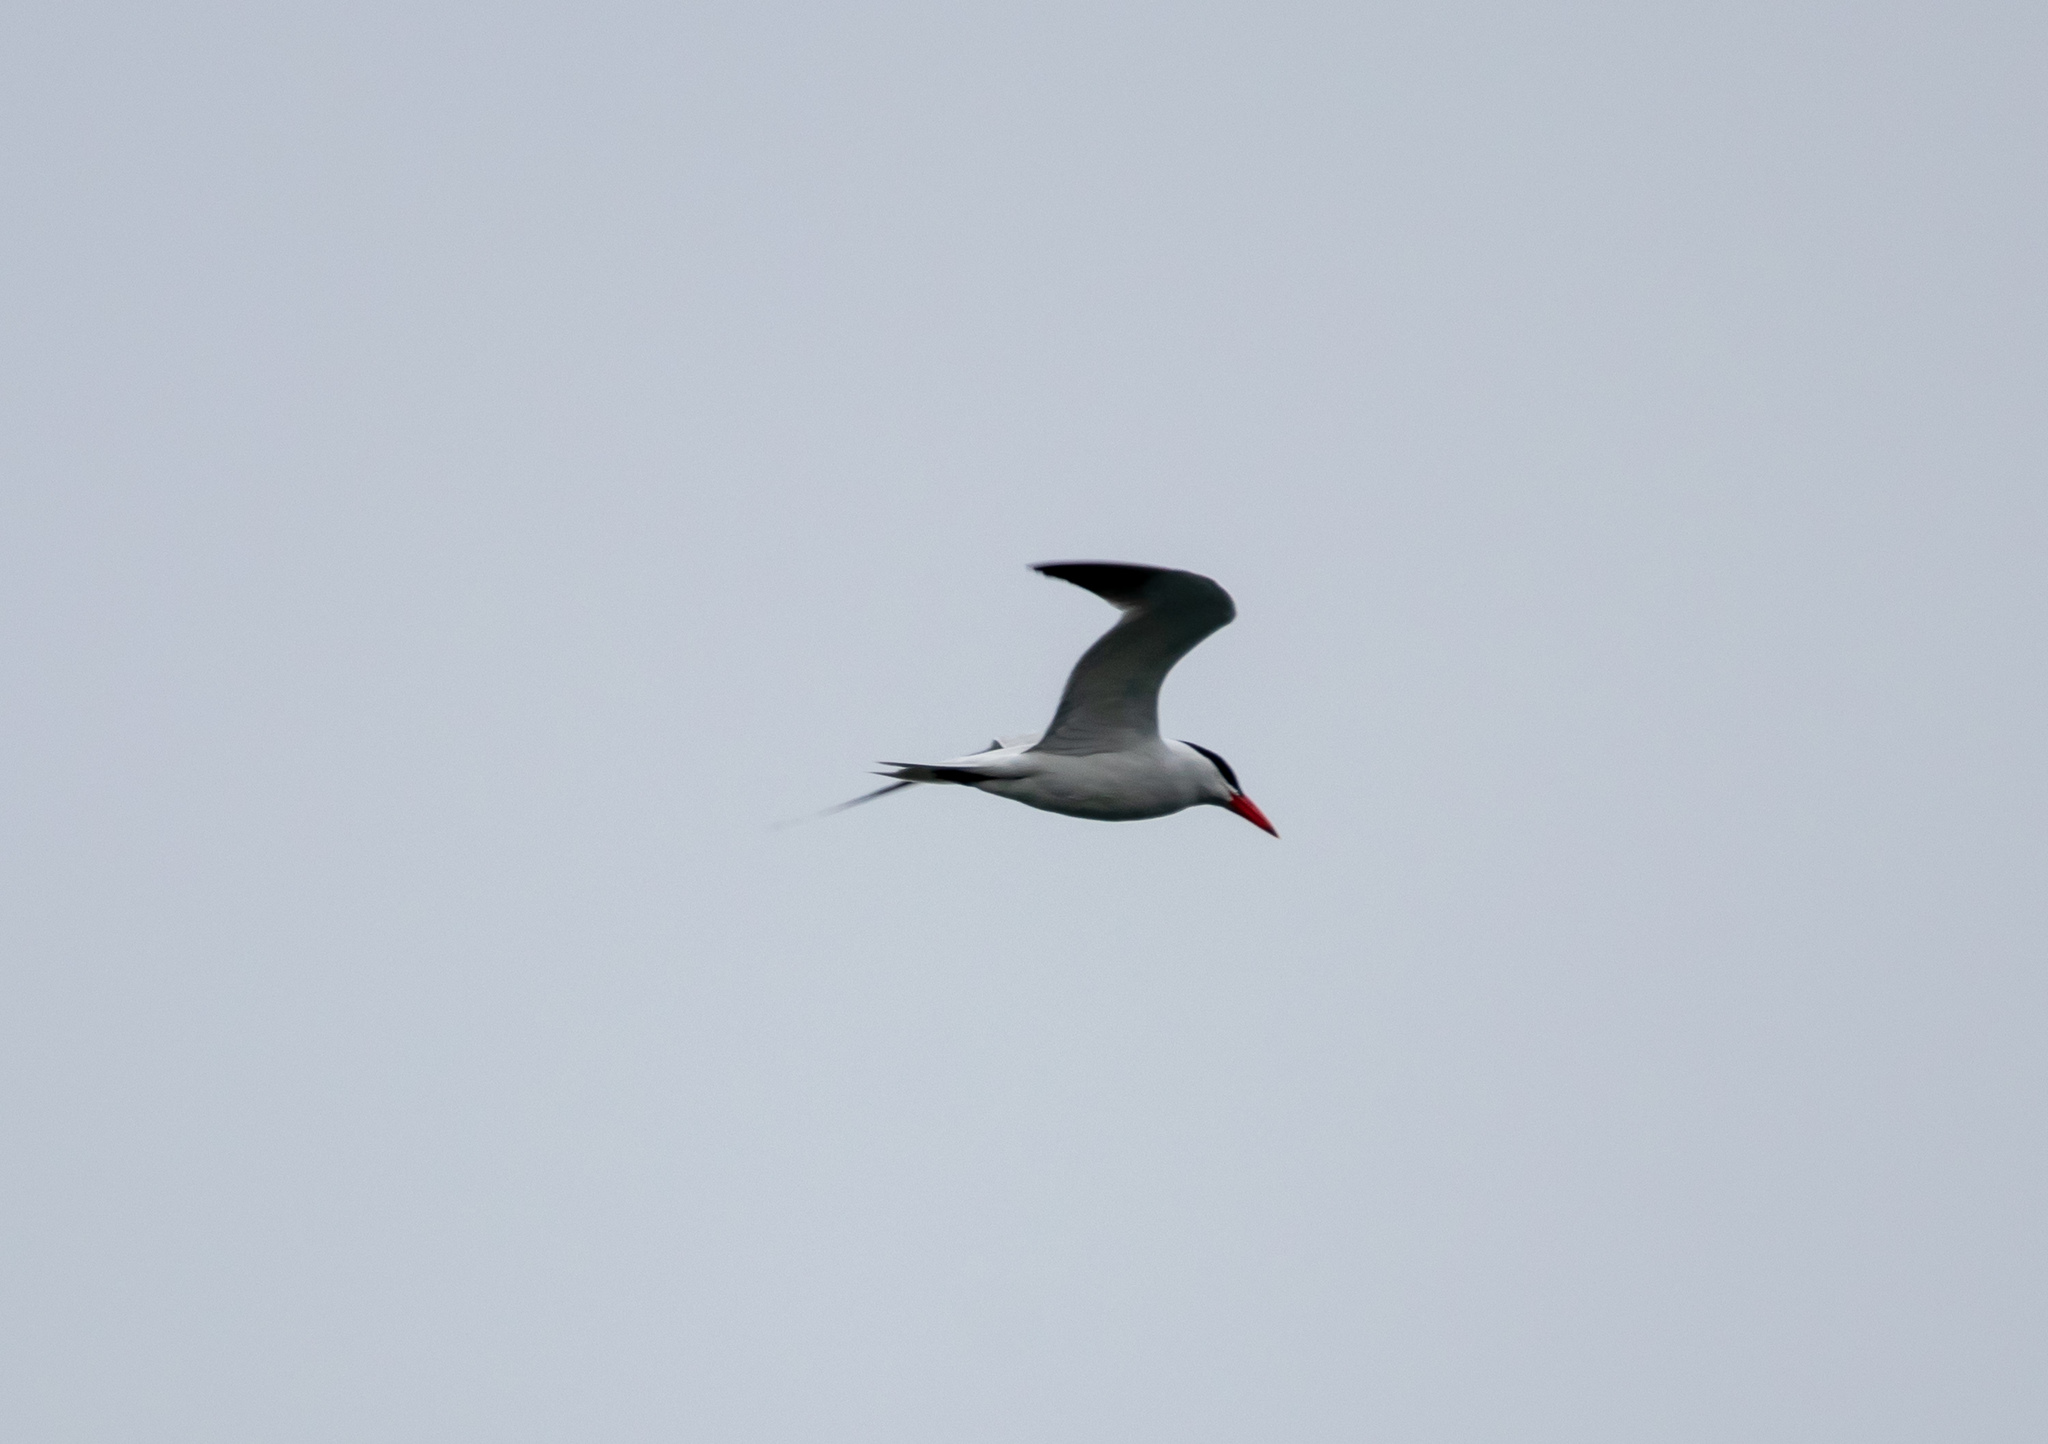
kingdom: Animalia
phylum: Chordata
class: Aves
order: Charadriiformes
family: Laridae
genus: Hydroprogne
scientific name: Hydroprogne caspia
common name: Caspian tern
